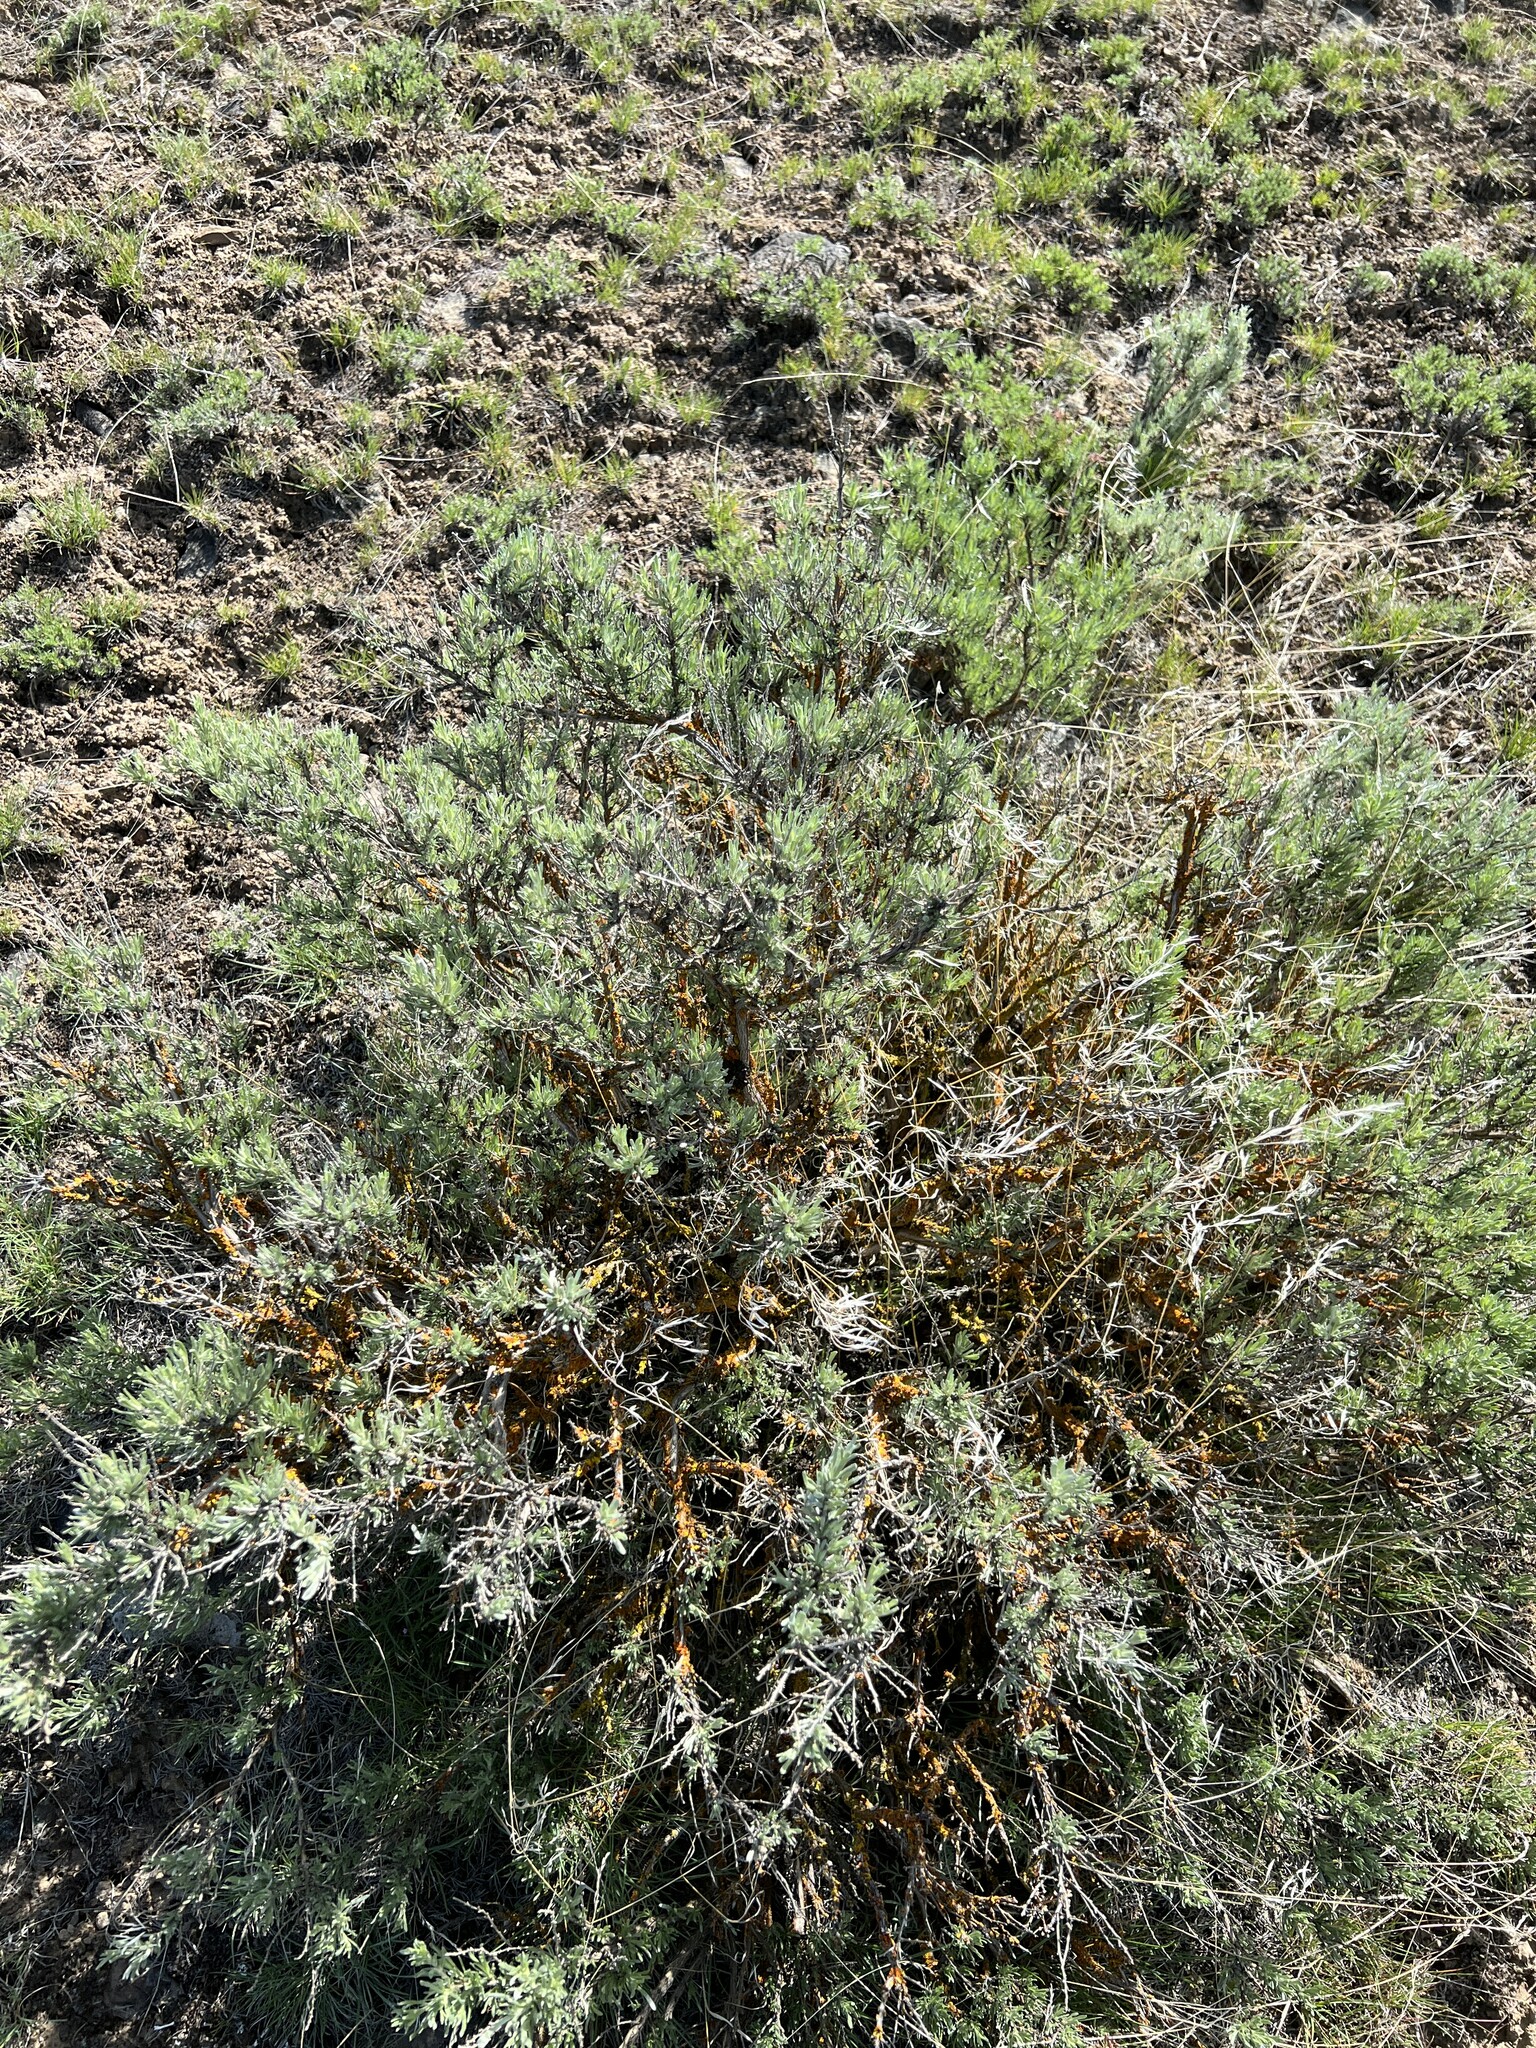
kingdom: Plantae
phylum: Tracheophyta
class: Magnoliopsida
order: Asterales
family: Asteraceae
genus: Artemisia
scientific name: Artemisia rigida
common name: Scabland sagebrush
